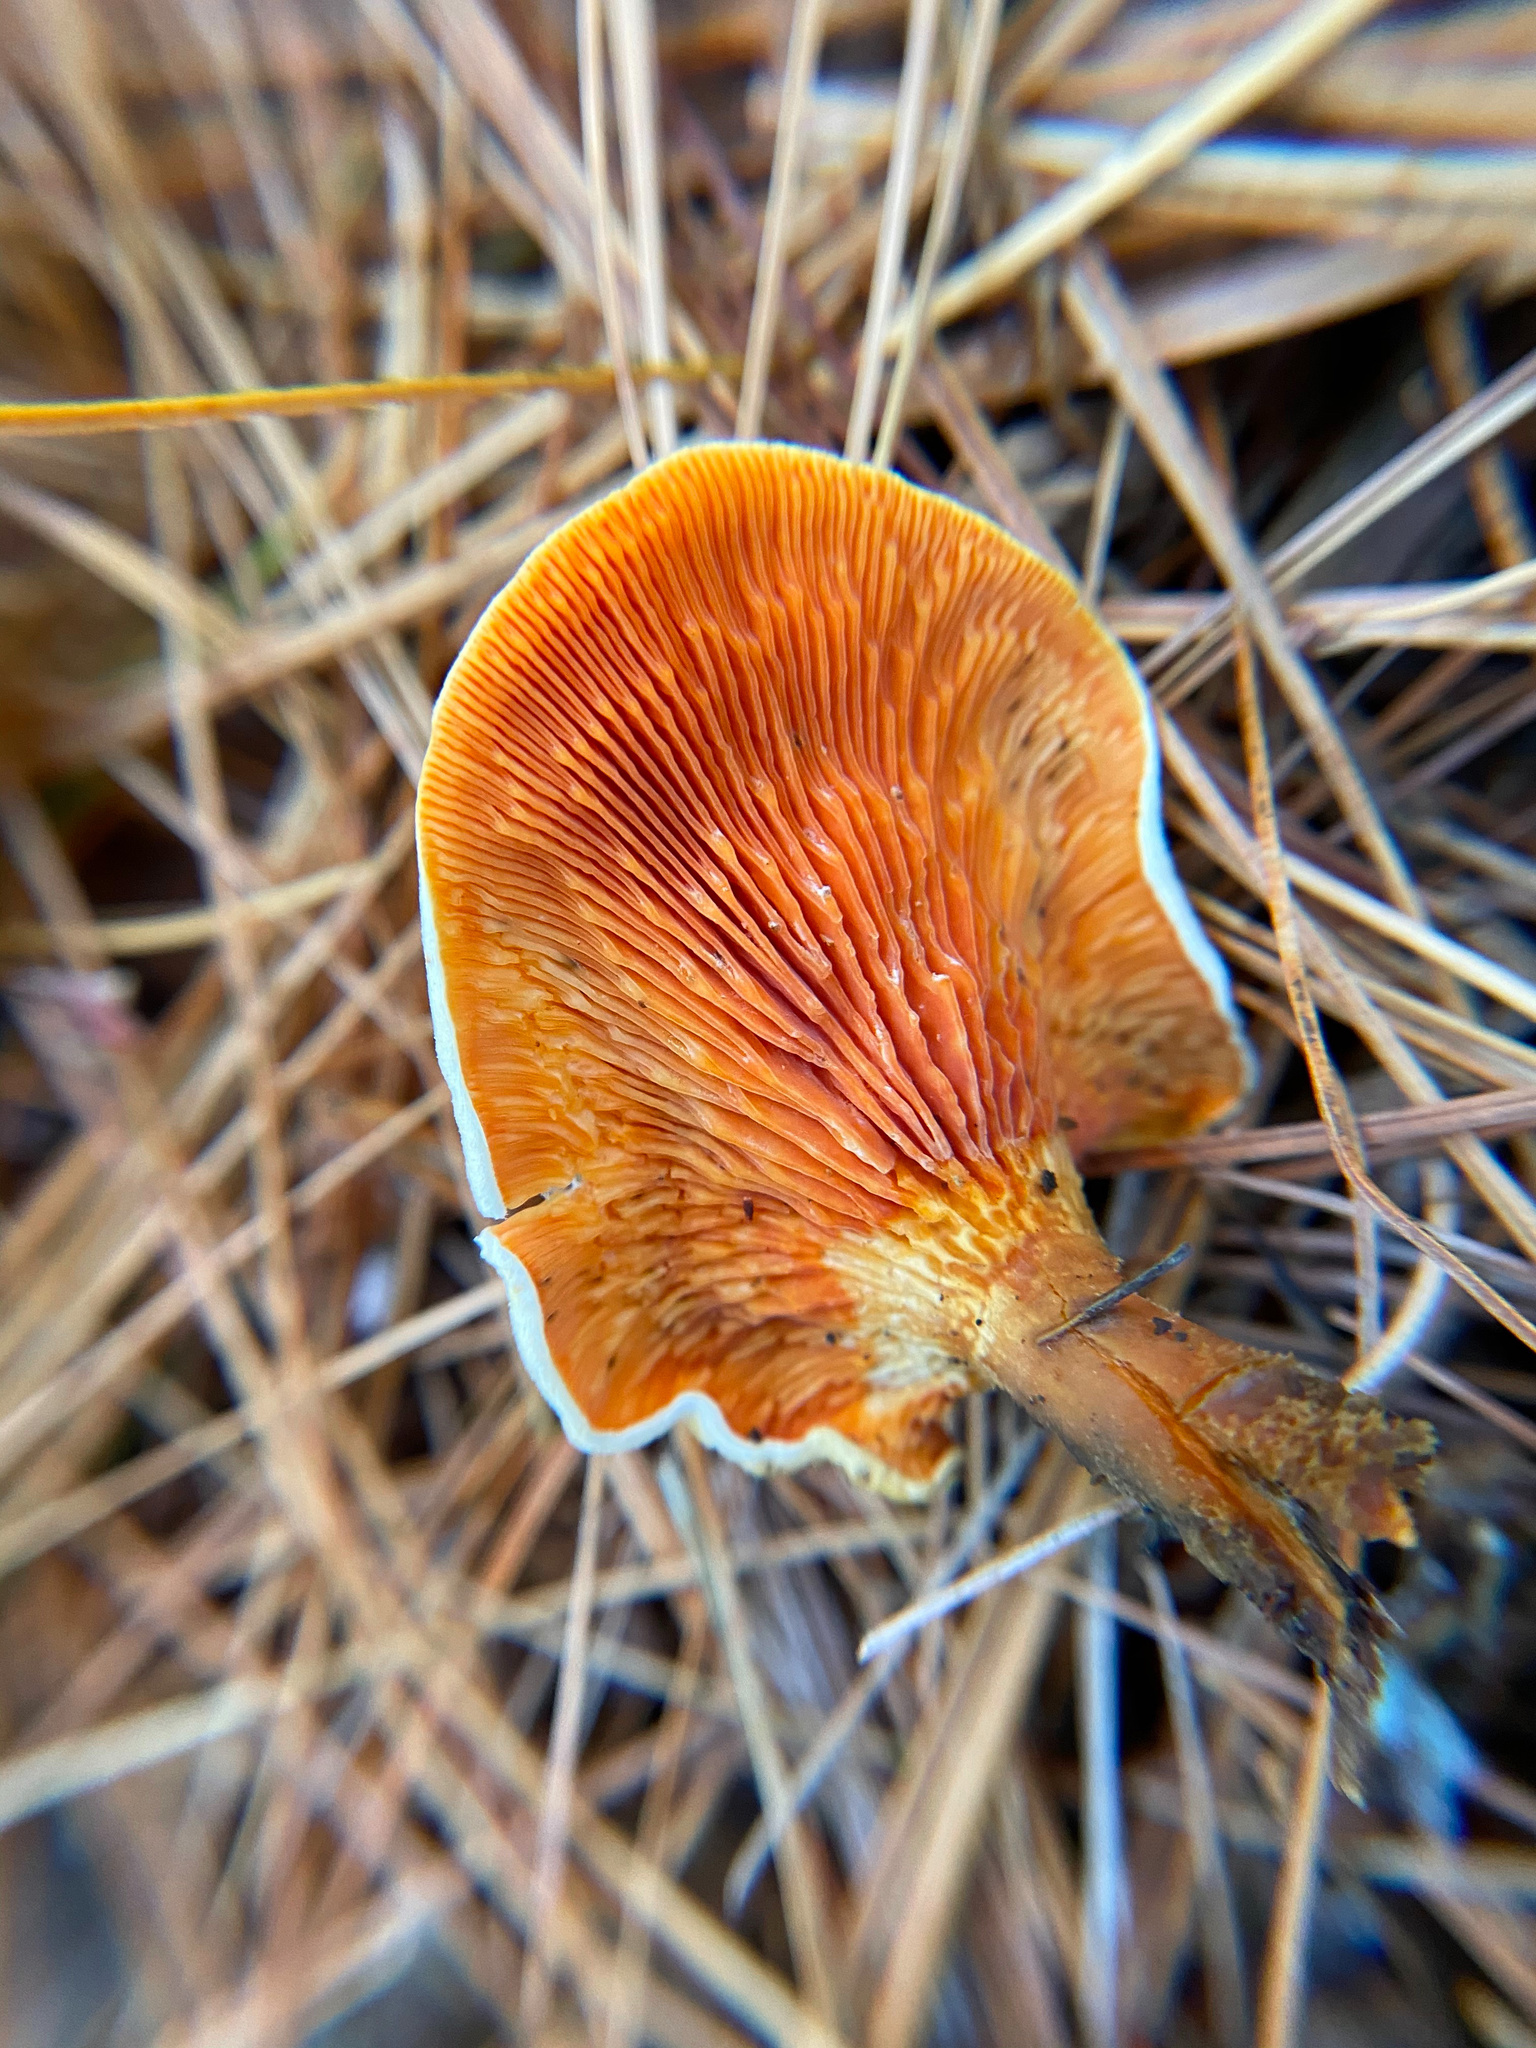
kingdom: Fungi
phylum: Basidiomycota
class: Agaricomycetes
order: Boletales
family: Hygrophoropsidaceae
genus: Hygrophoropsis
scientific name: Hygrophoropsis aurantiaca
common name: False chanterelle
